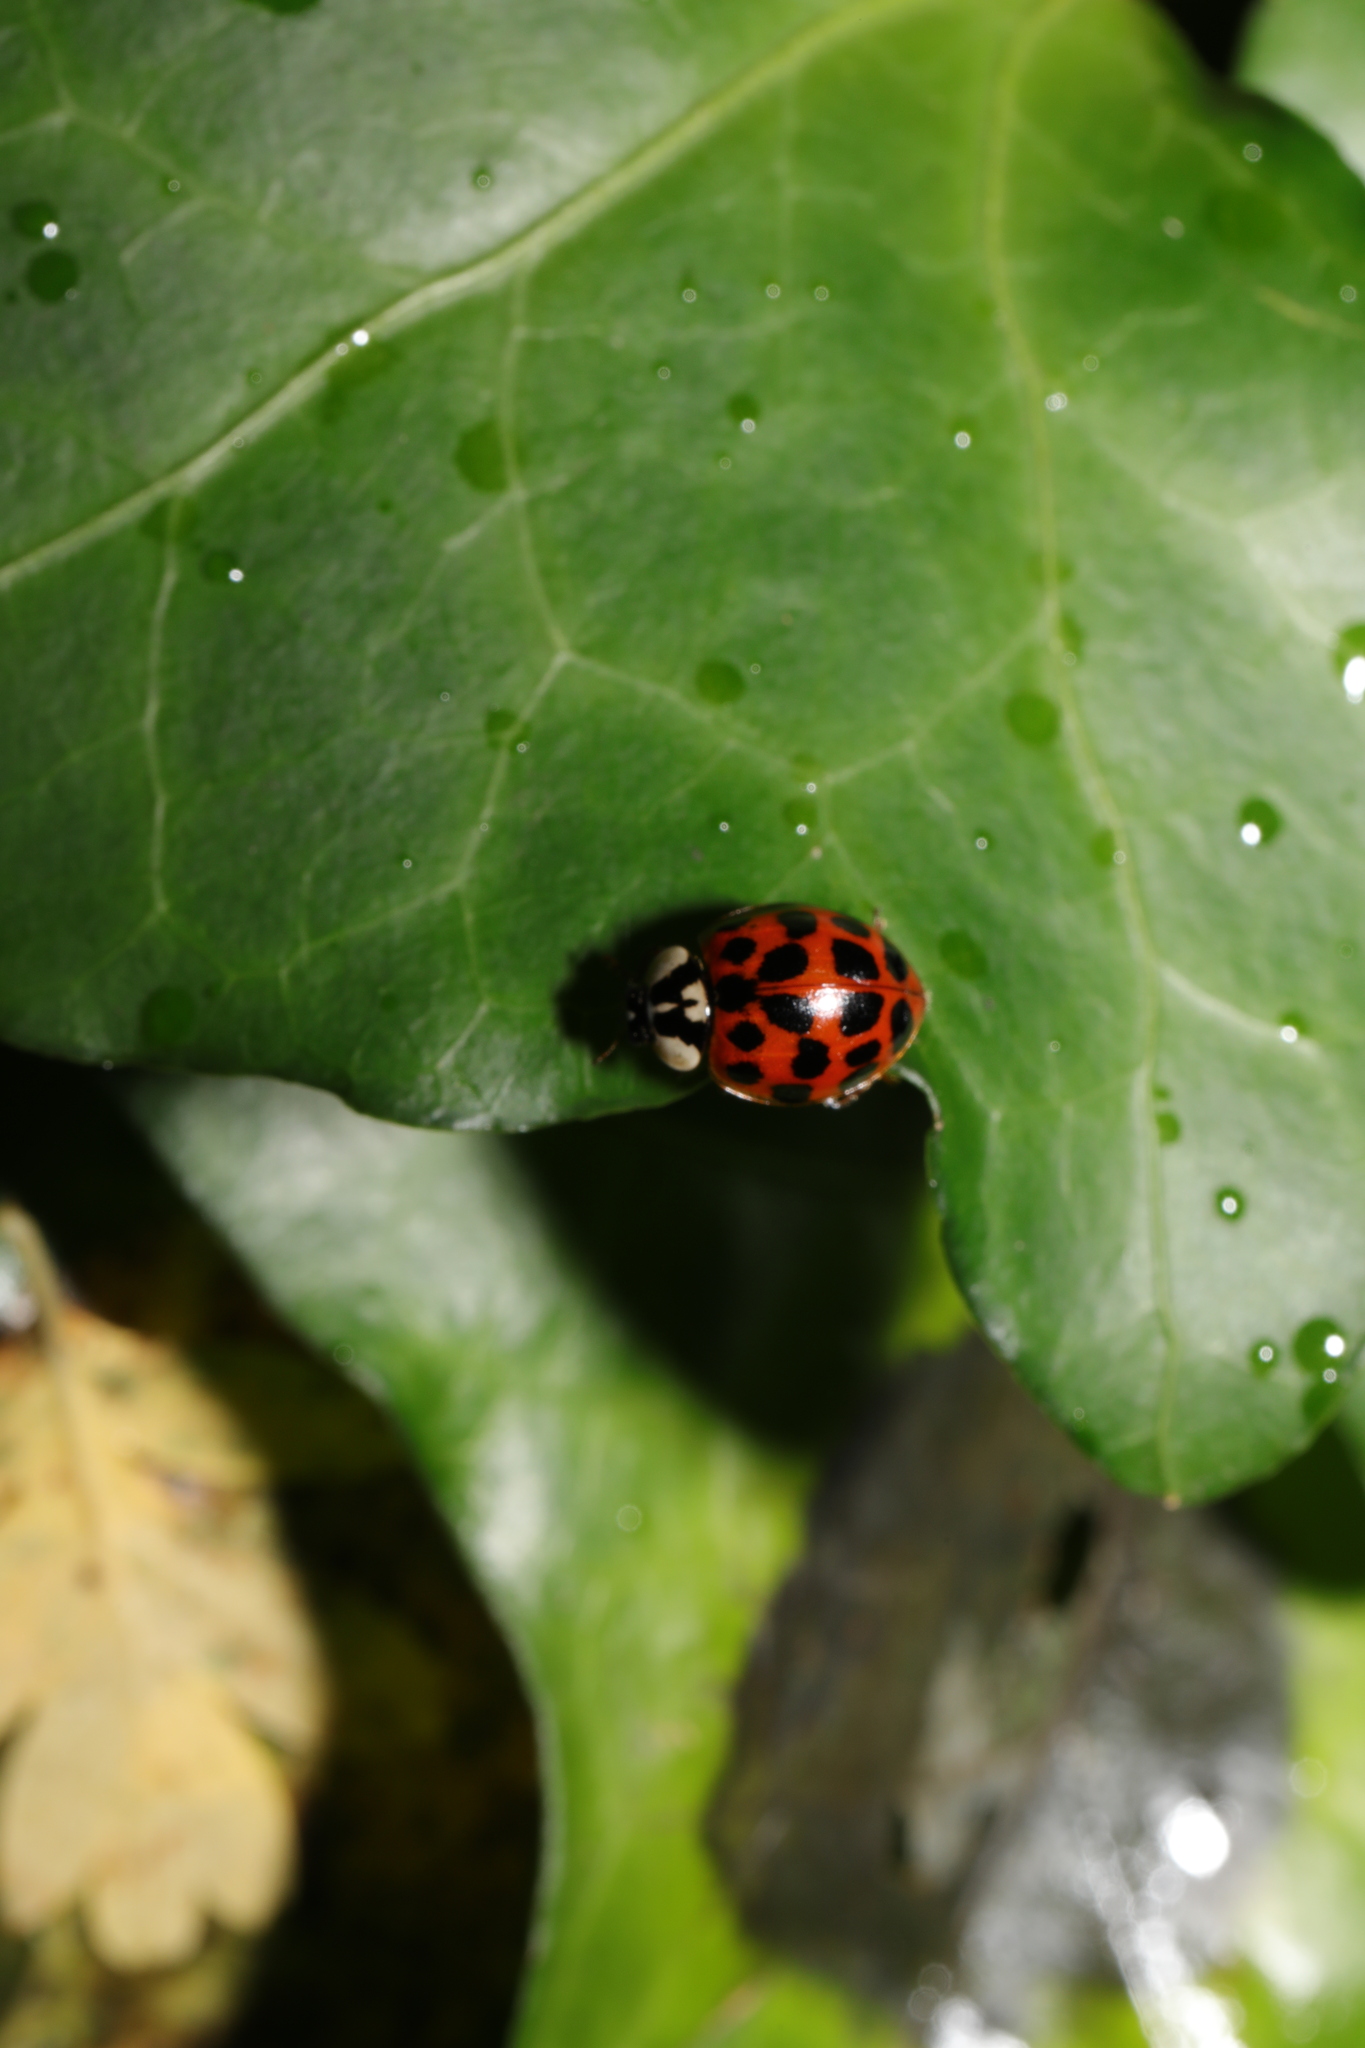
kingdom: Animalia
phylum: Arthropoda
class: Insecta
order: Coleoptera
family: Coccinellidae
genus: Harmonia
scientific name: Harmonia axyridis
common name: Harlequin ladybird
